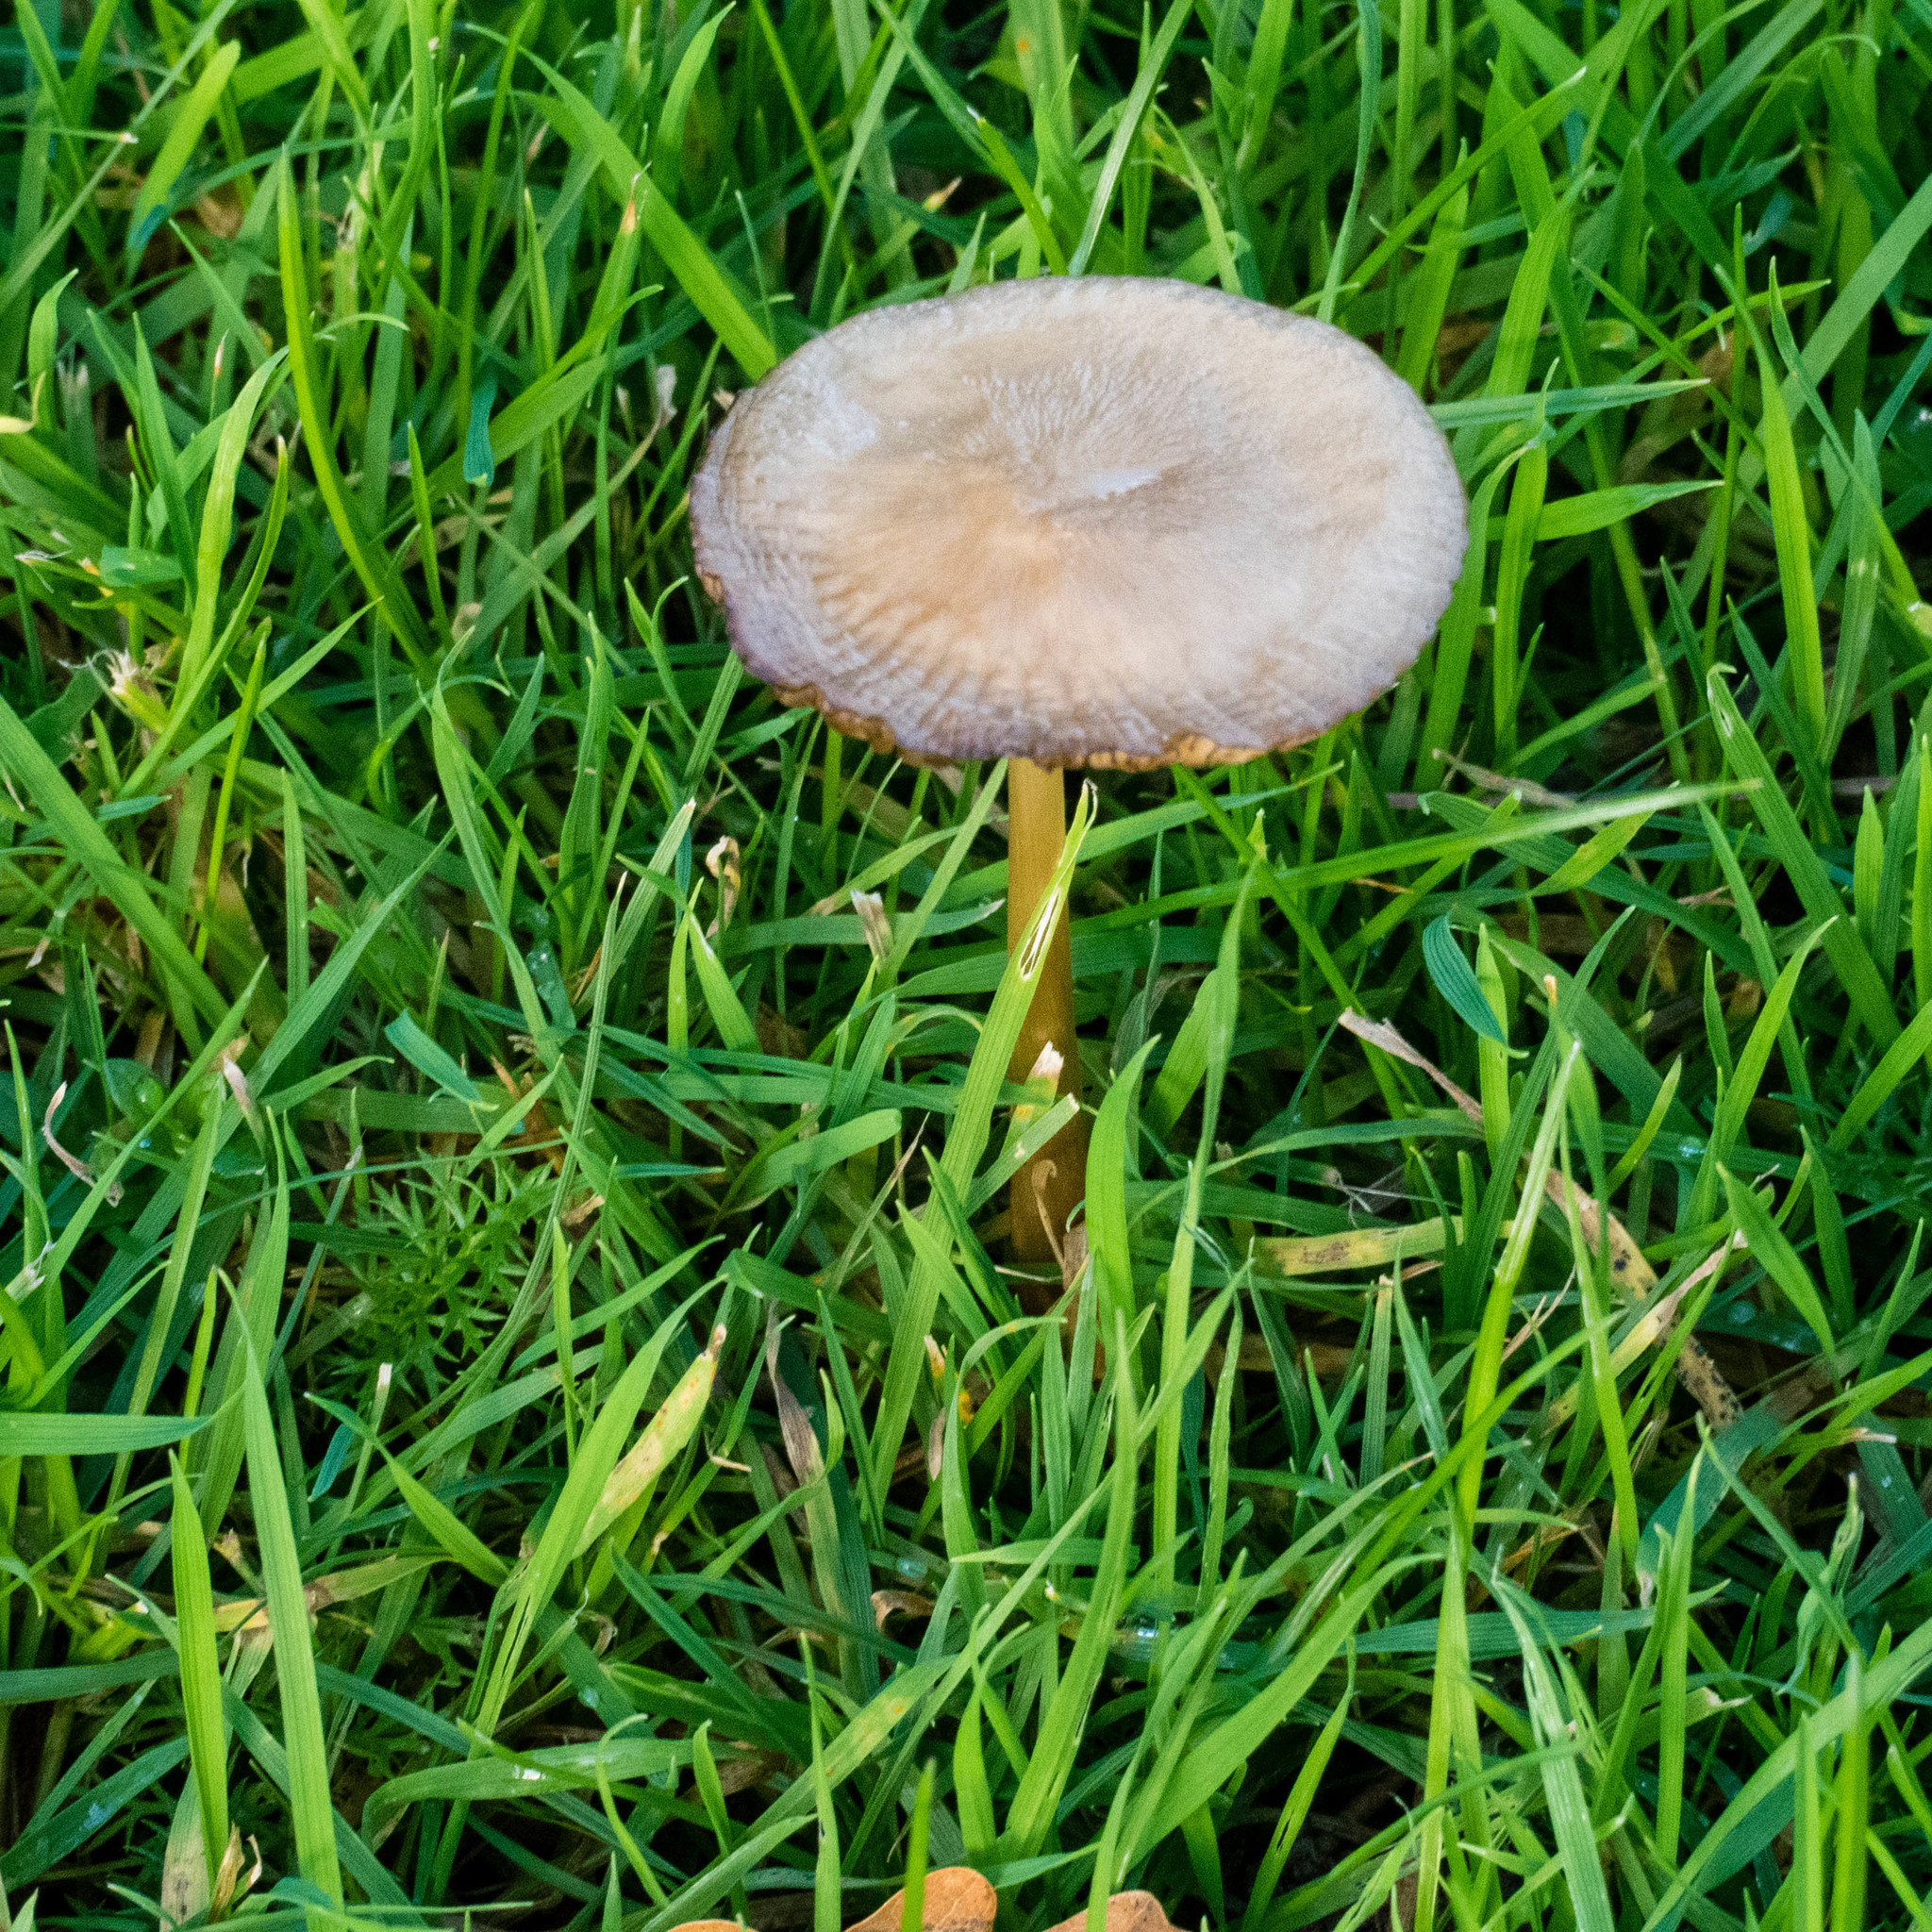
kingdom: Fungi
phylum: Basidiomycota
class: Agaricomycetes
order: Agaricales
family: Pluteaceae
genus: Volvopluteus
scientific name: Volvopluteus gloiocephalus
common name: Stubble rosegill
